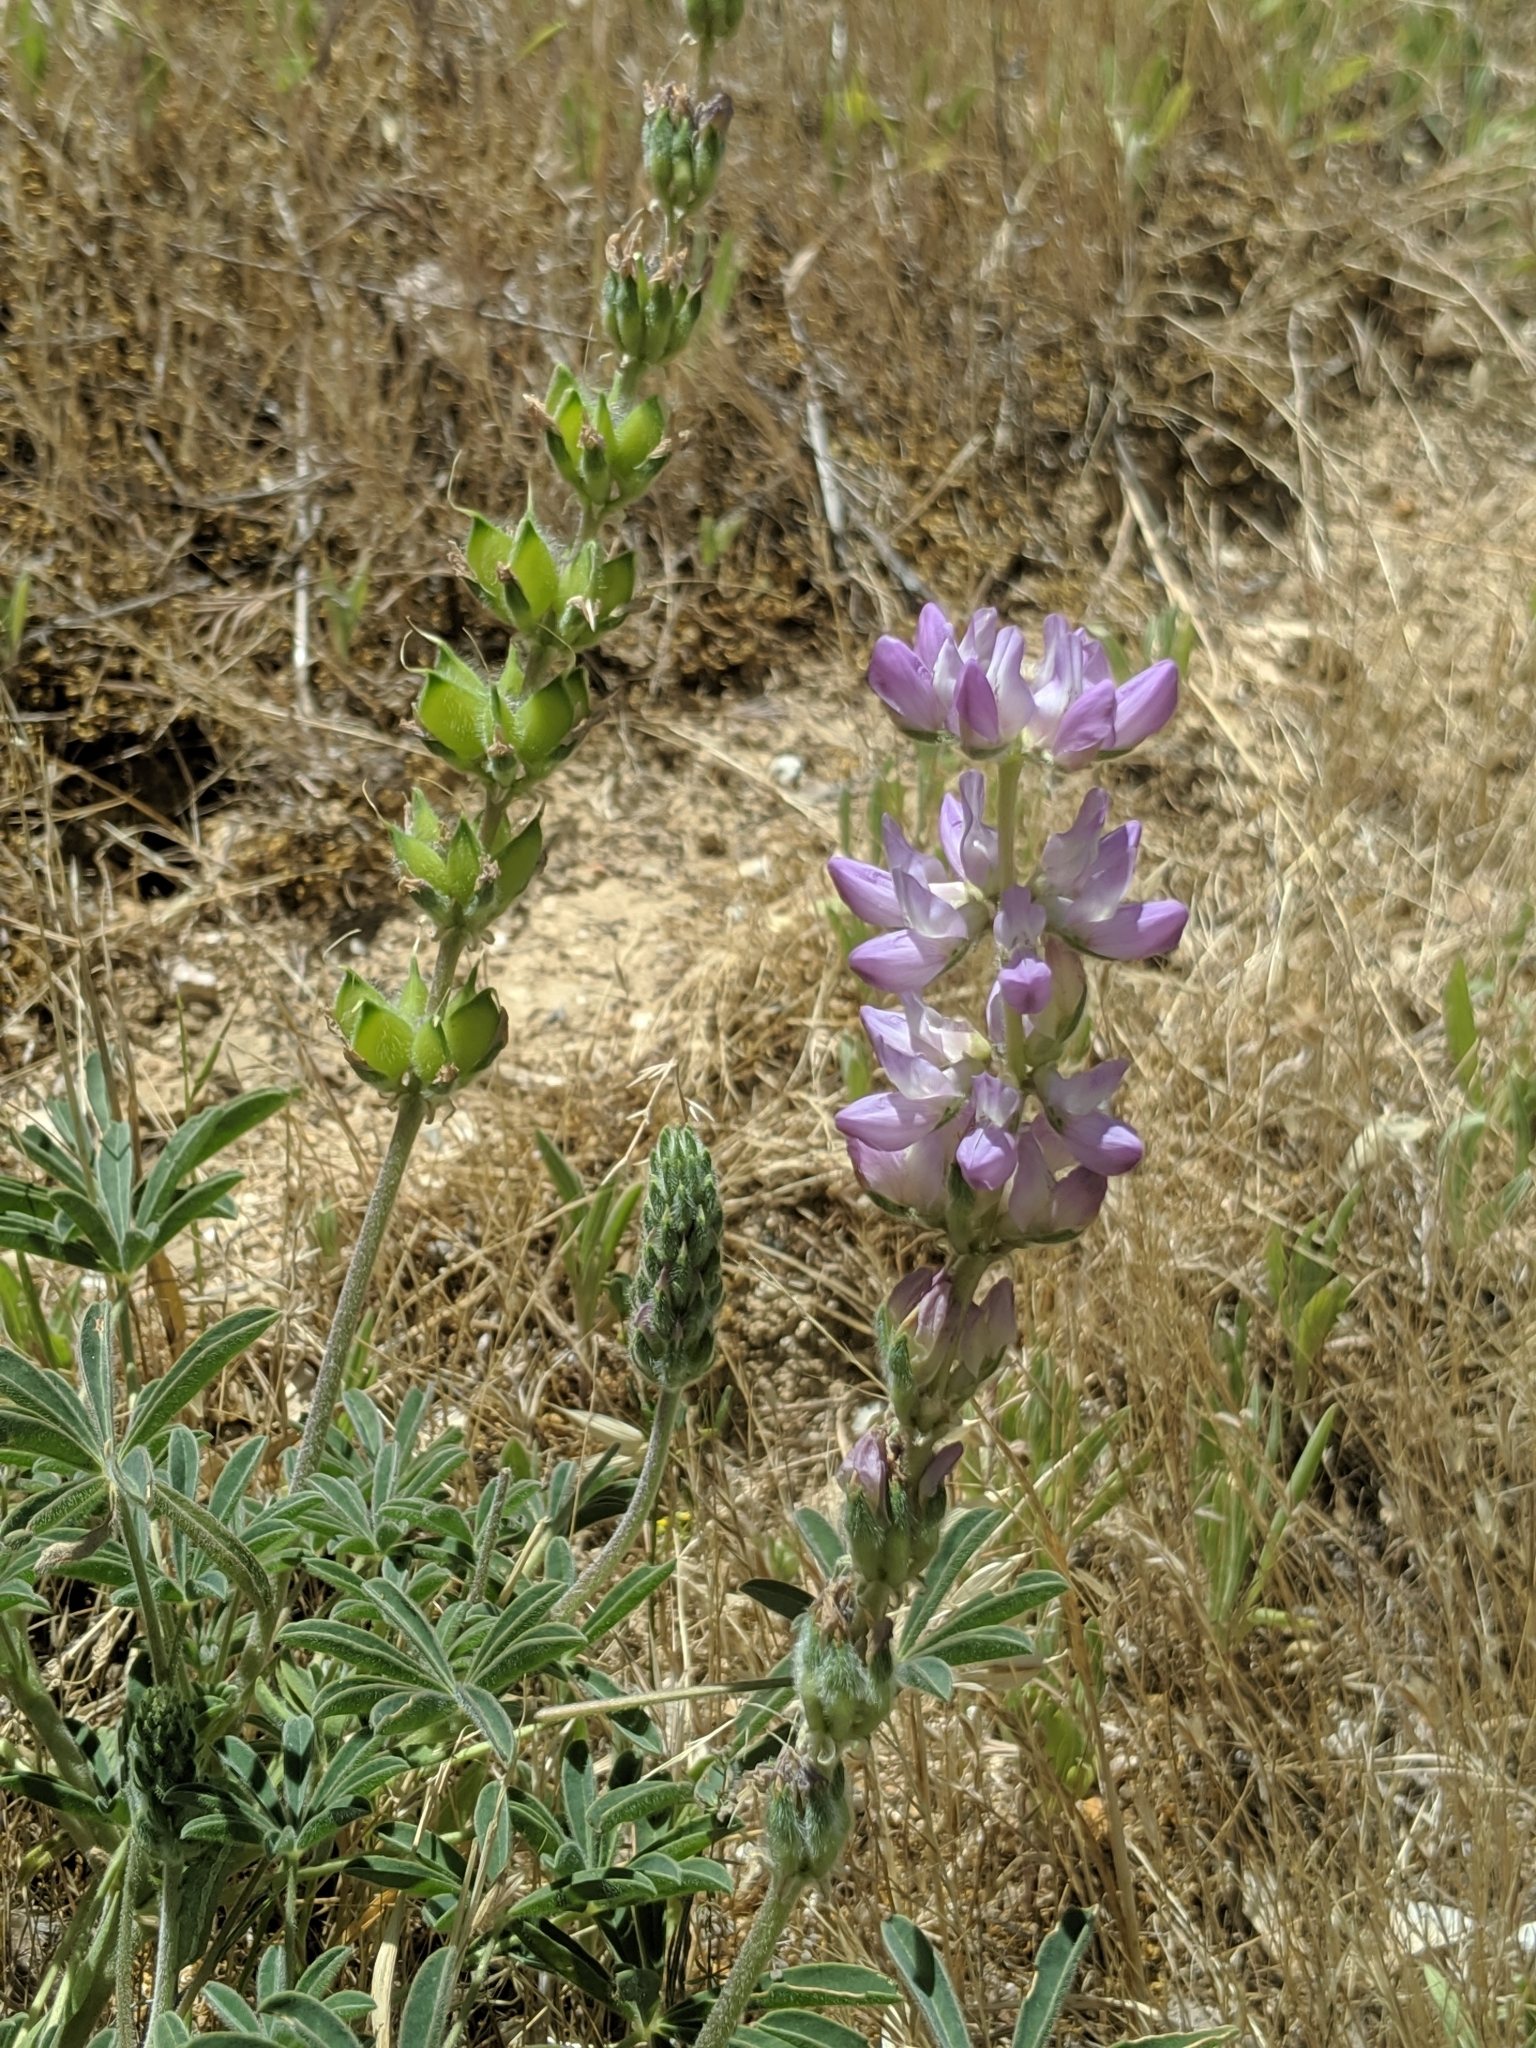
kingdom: Plantae
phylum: Tracheophyta
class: Magnoliopsida
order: Fabales
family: Fabaceae
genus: Lupinus
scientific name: Lupinus microcarpus
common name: Chick lupine
